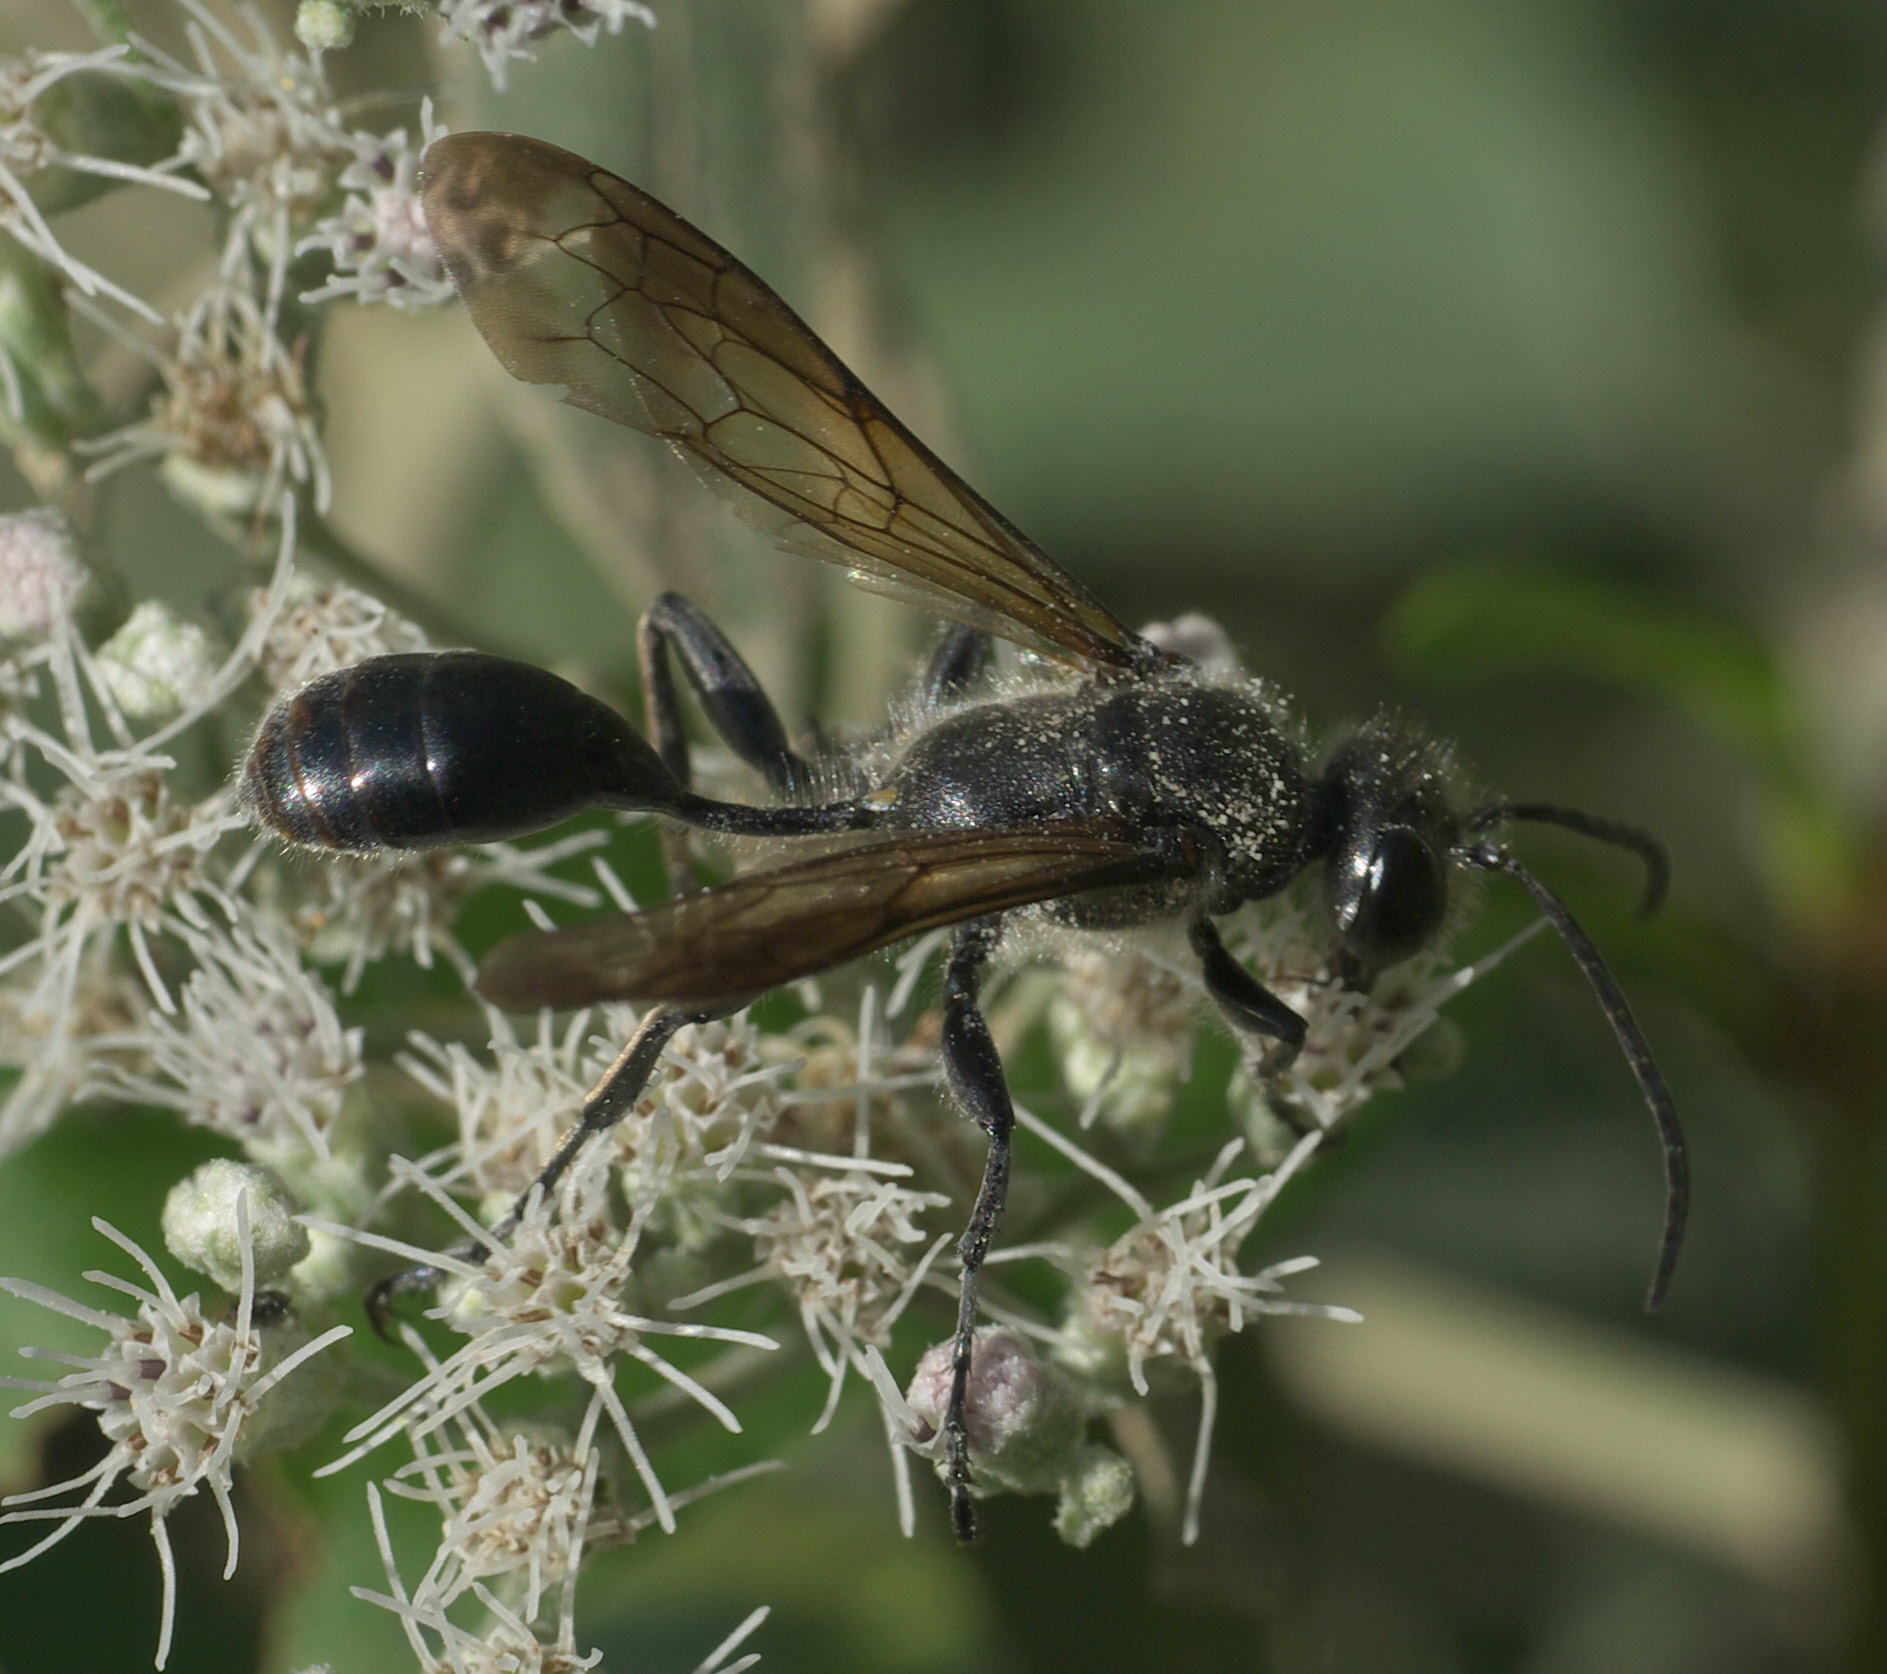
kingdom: Animalia
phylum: Arthropoda
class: Insecta
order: Hymenoptera
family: Sphecidae
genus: Isodontia
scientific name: Isodontia mexicana
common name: Mud dauber
